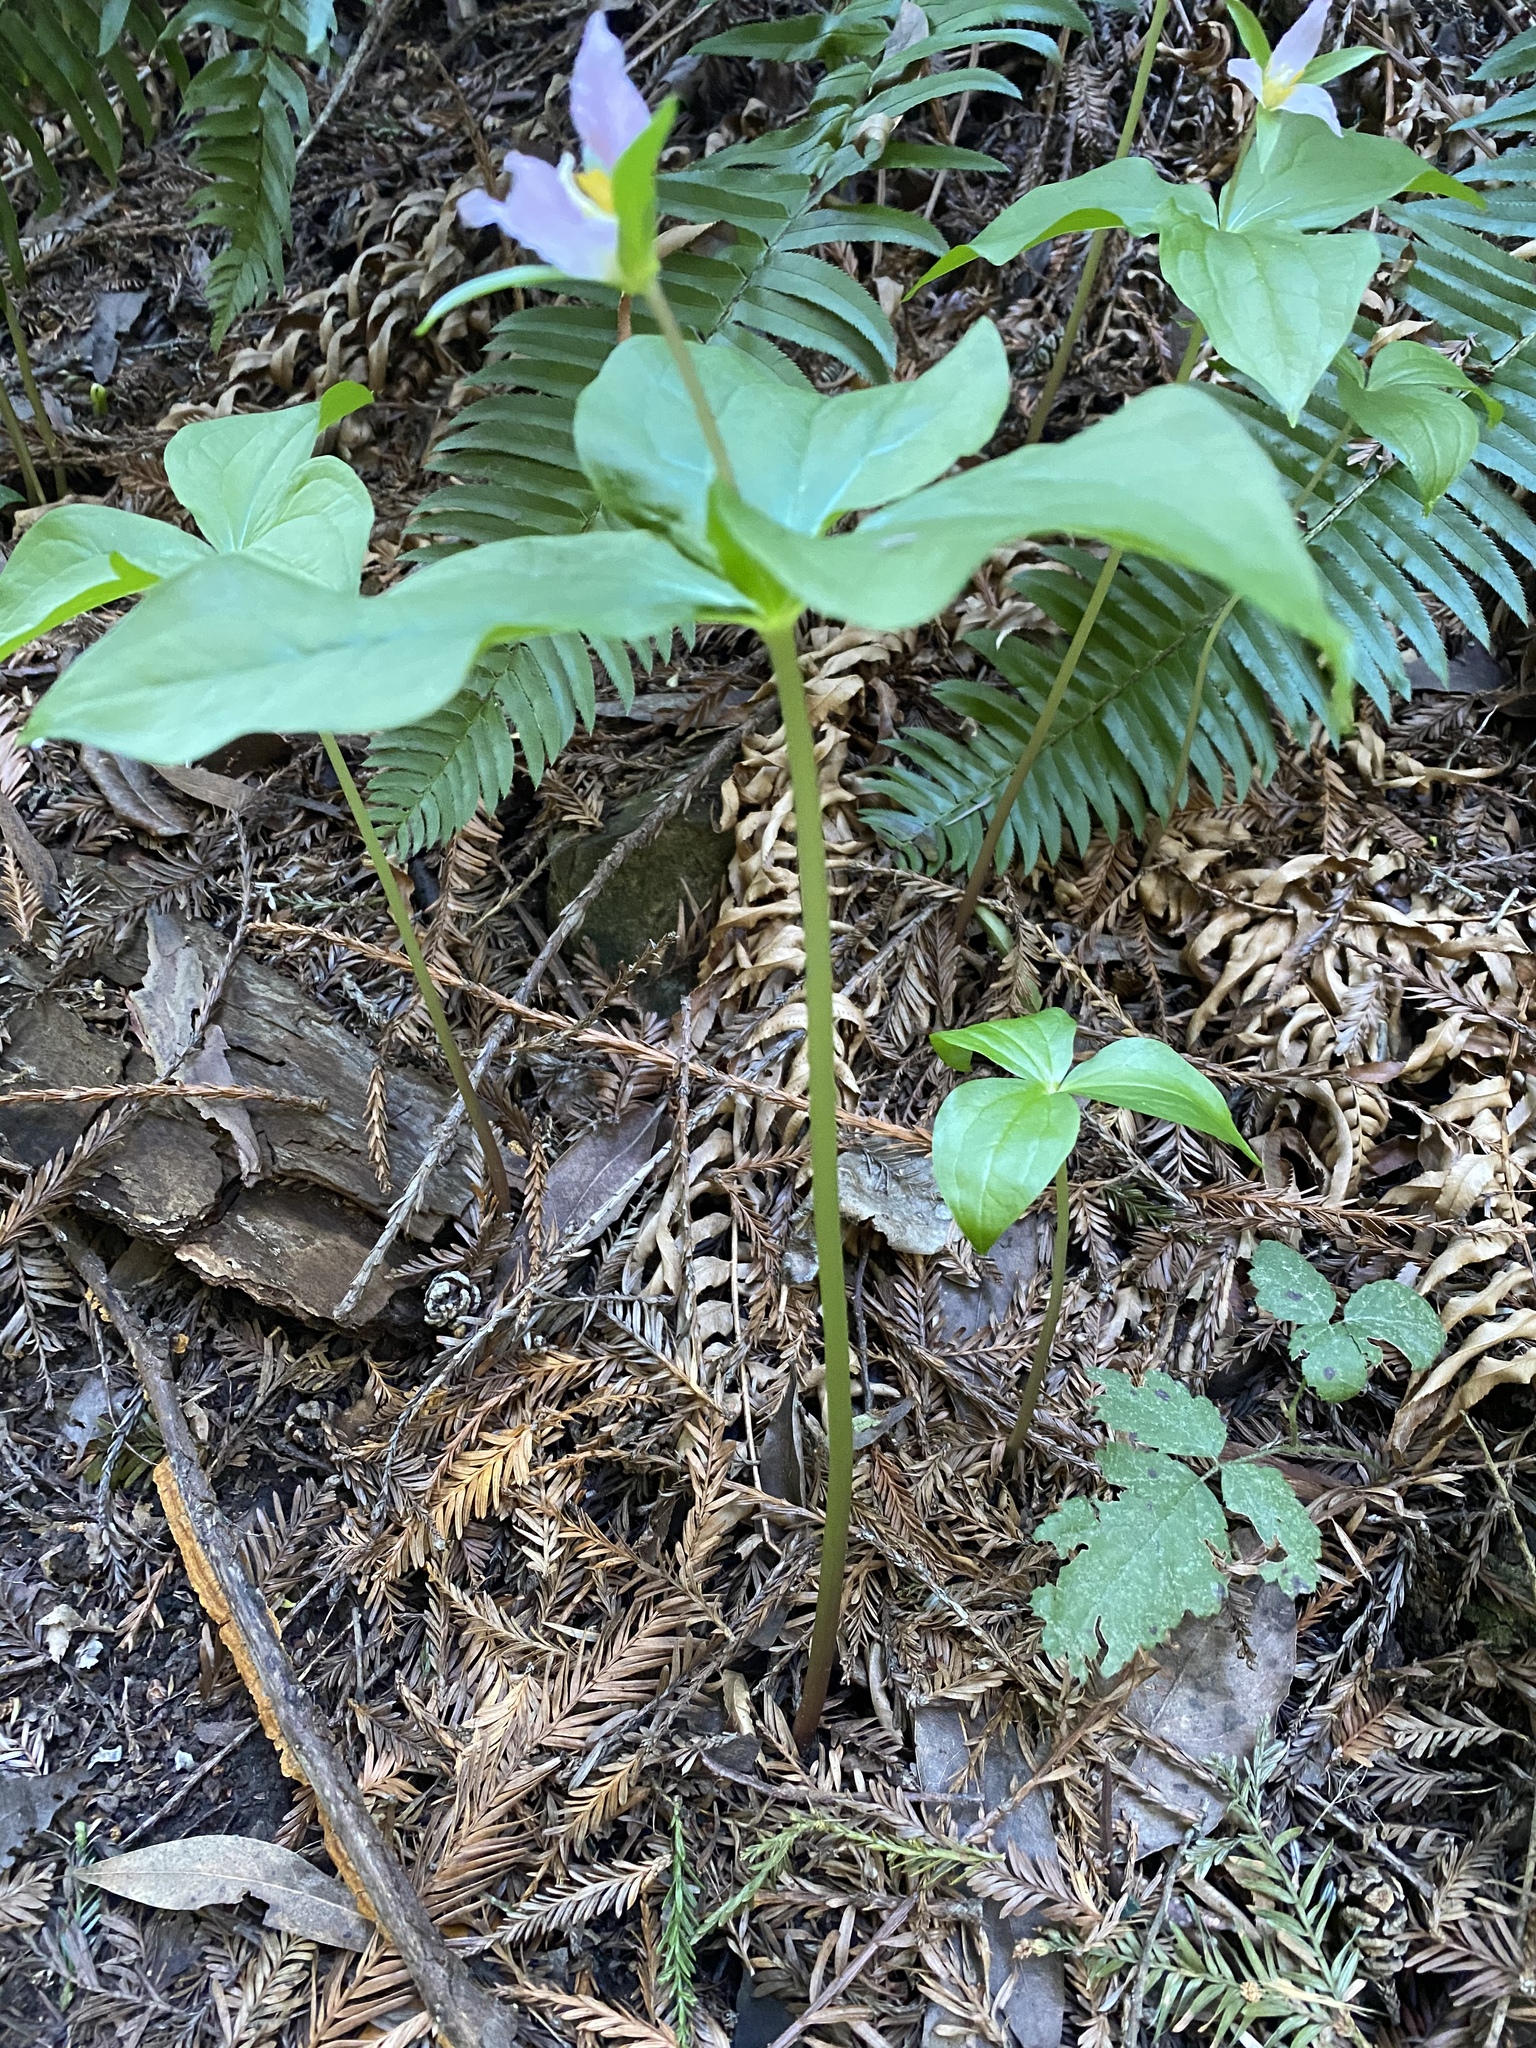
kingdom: Plantae
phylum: Tracheophyta
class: Liliopsida
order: Liliales
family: Melanthiaceae
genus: Trillium
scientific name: Trillium ovatum
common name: Pacific trillium
